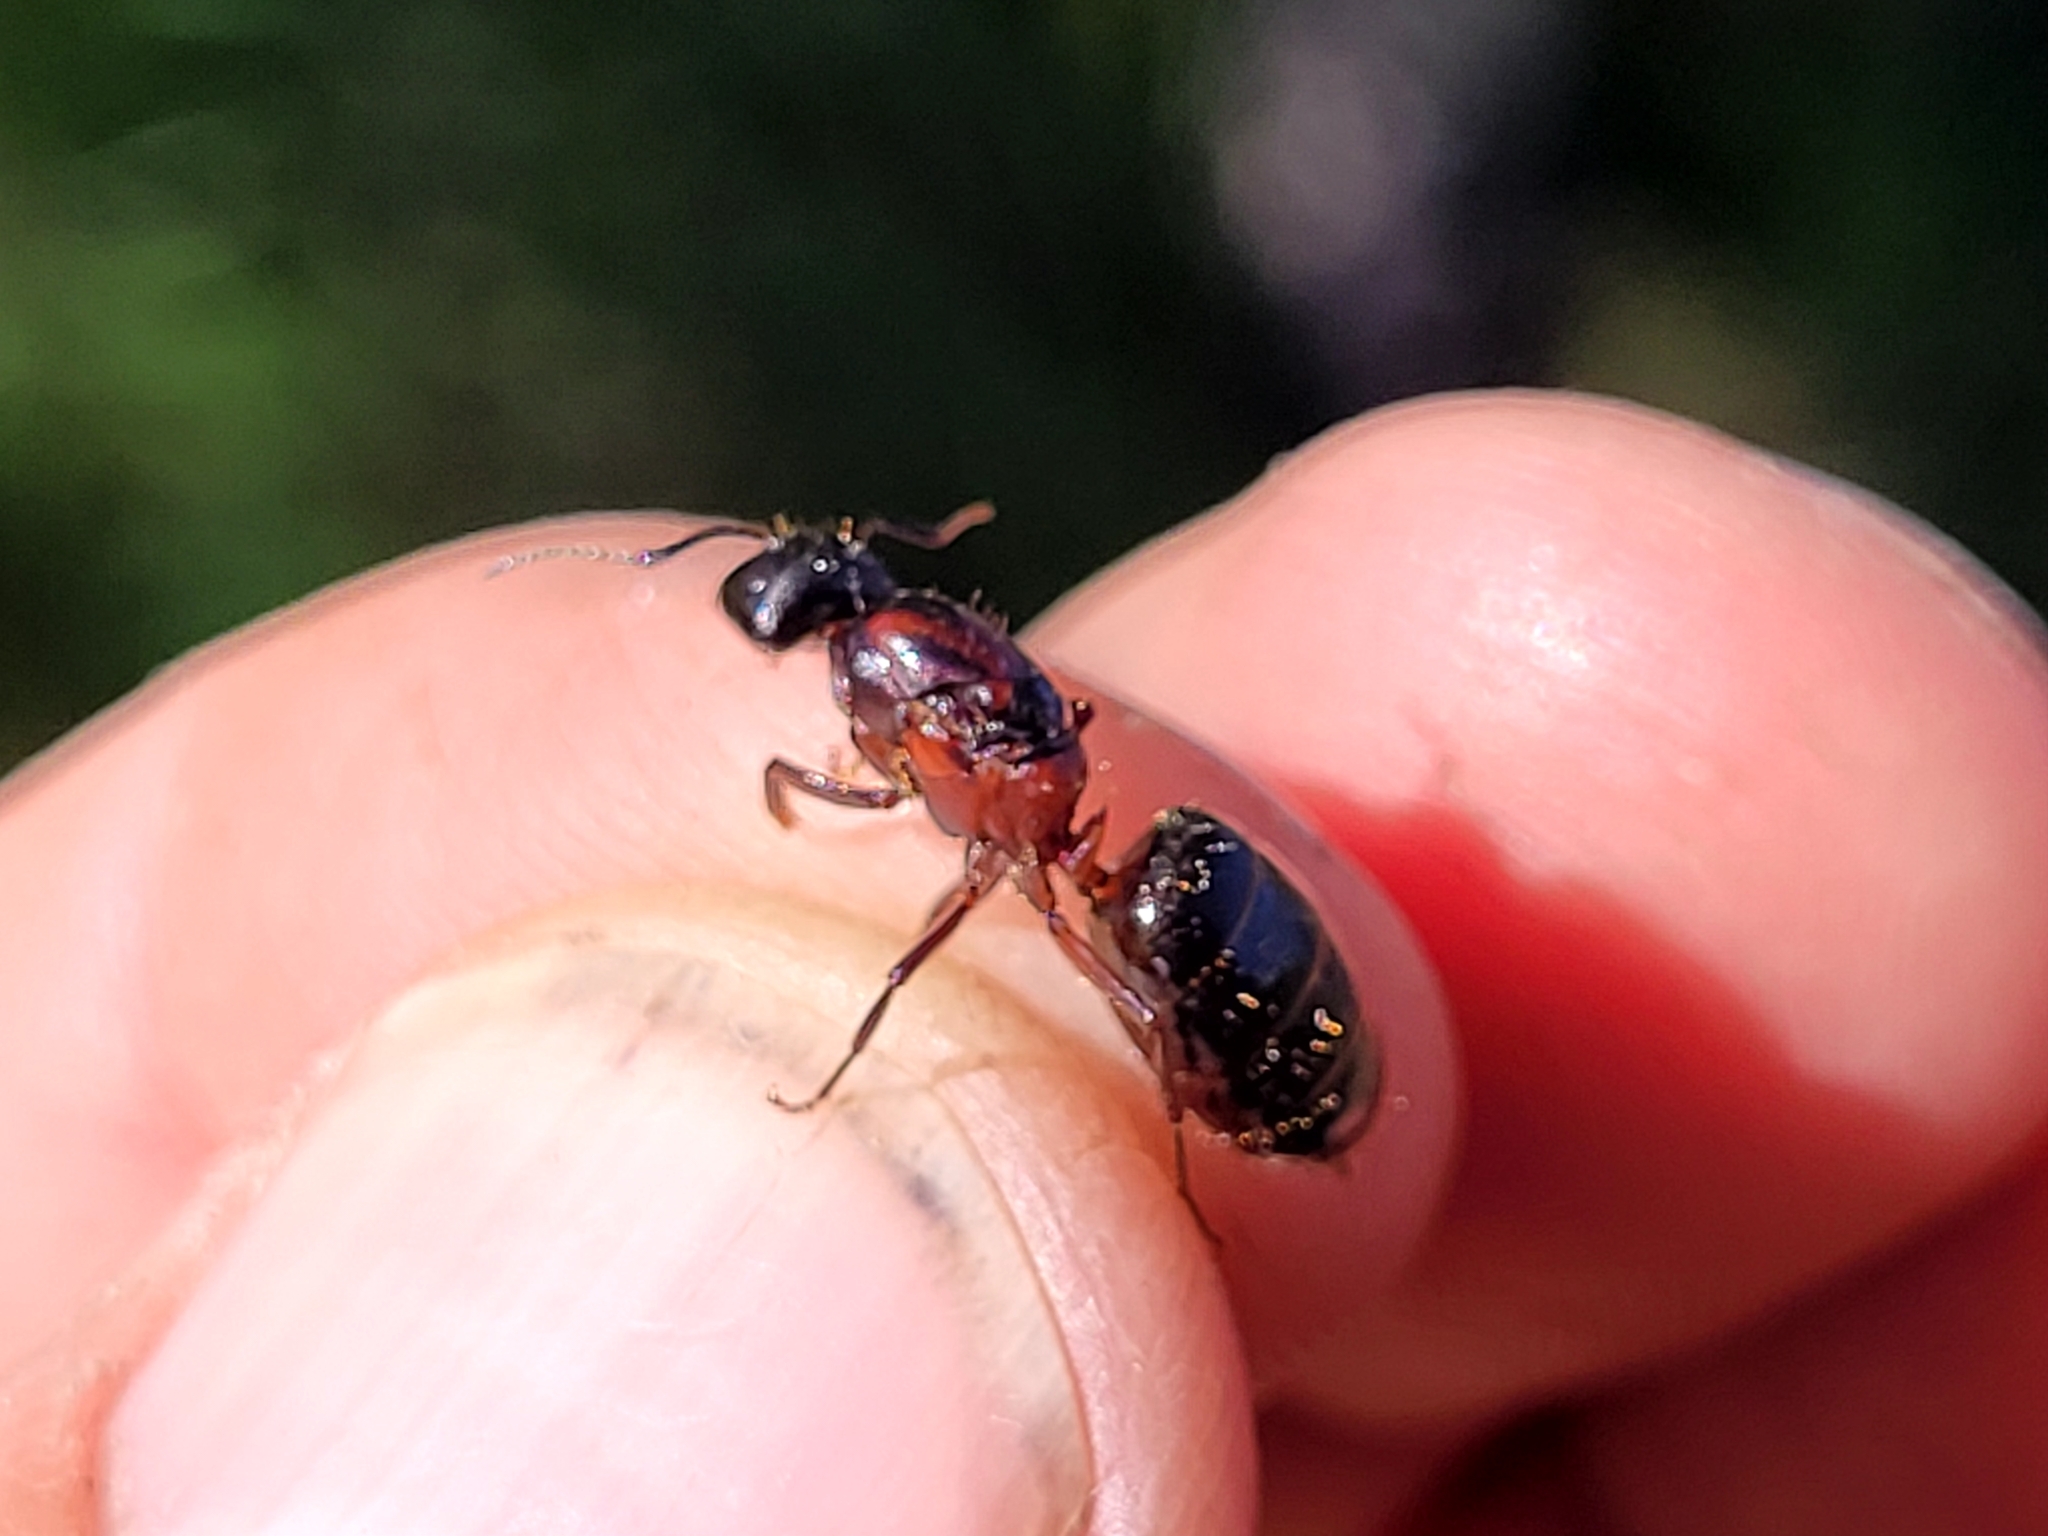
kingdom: Animalia
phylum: Arthropoda
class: Insecta
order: Hymenoptera
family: Formicidae
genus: Camponotus
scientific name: Camponotus novaeboracensis
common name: New york carpenter ant
